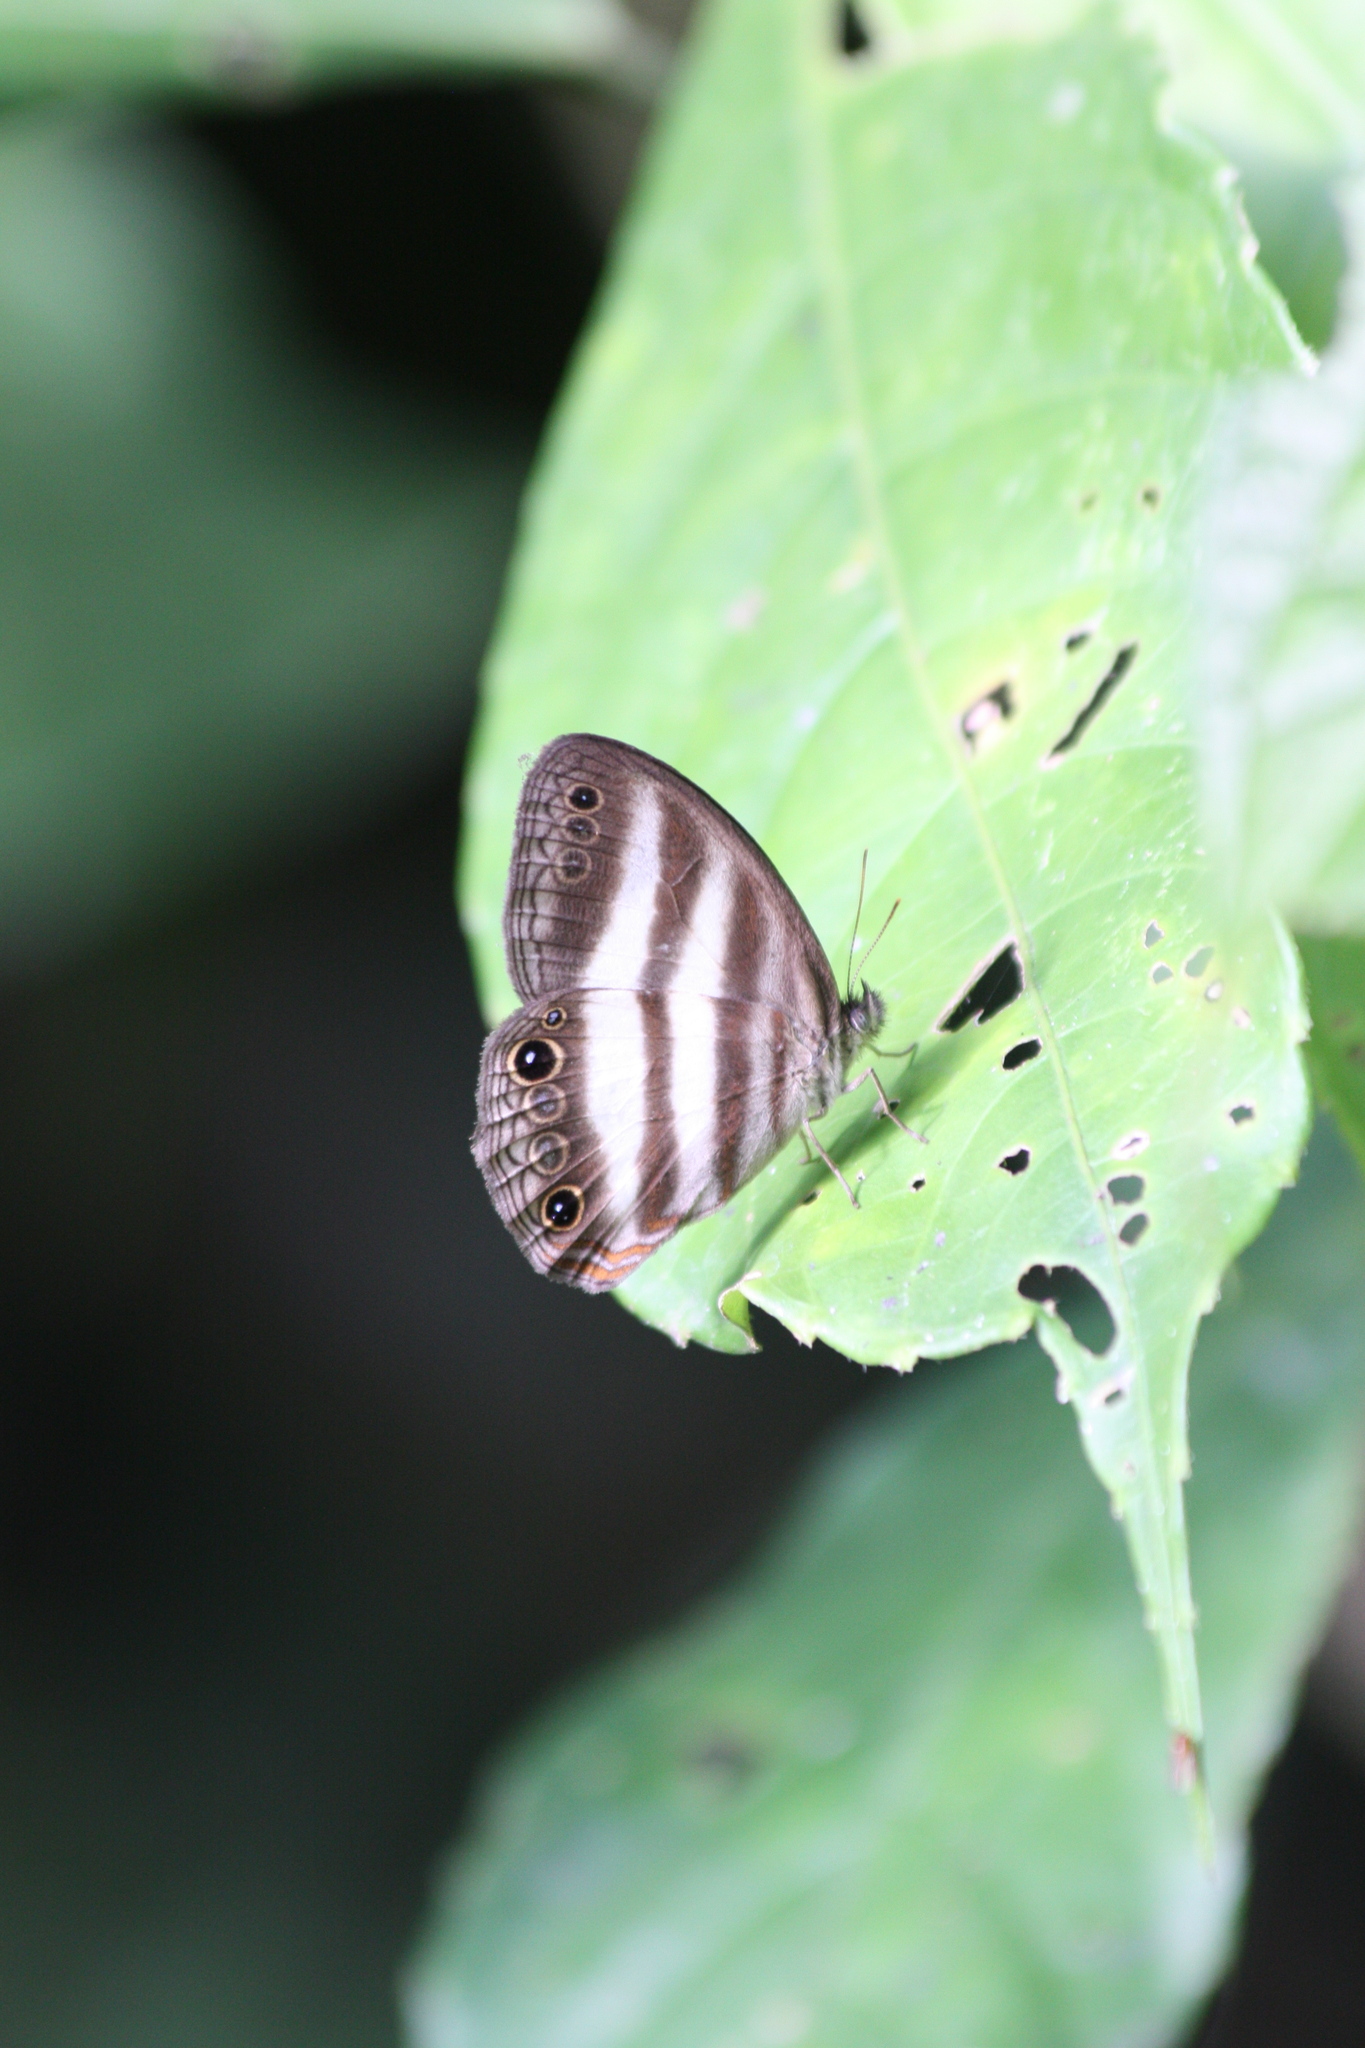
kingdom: Animalia
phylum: Arthropoda
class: Insecta
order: Lepidoptera
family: Nymphalidae
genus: Pareuptychia
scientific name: Pareuptychia hesione
